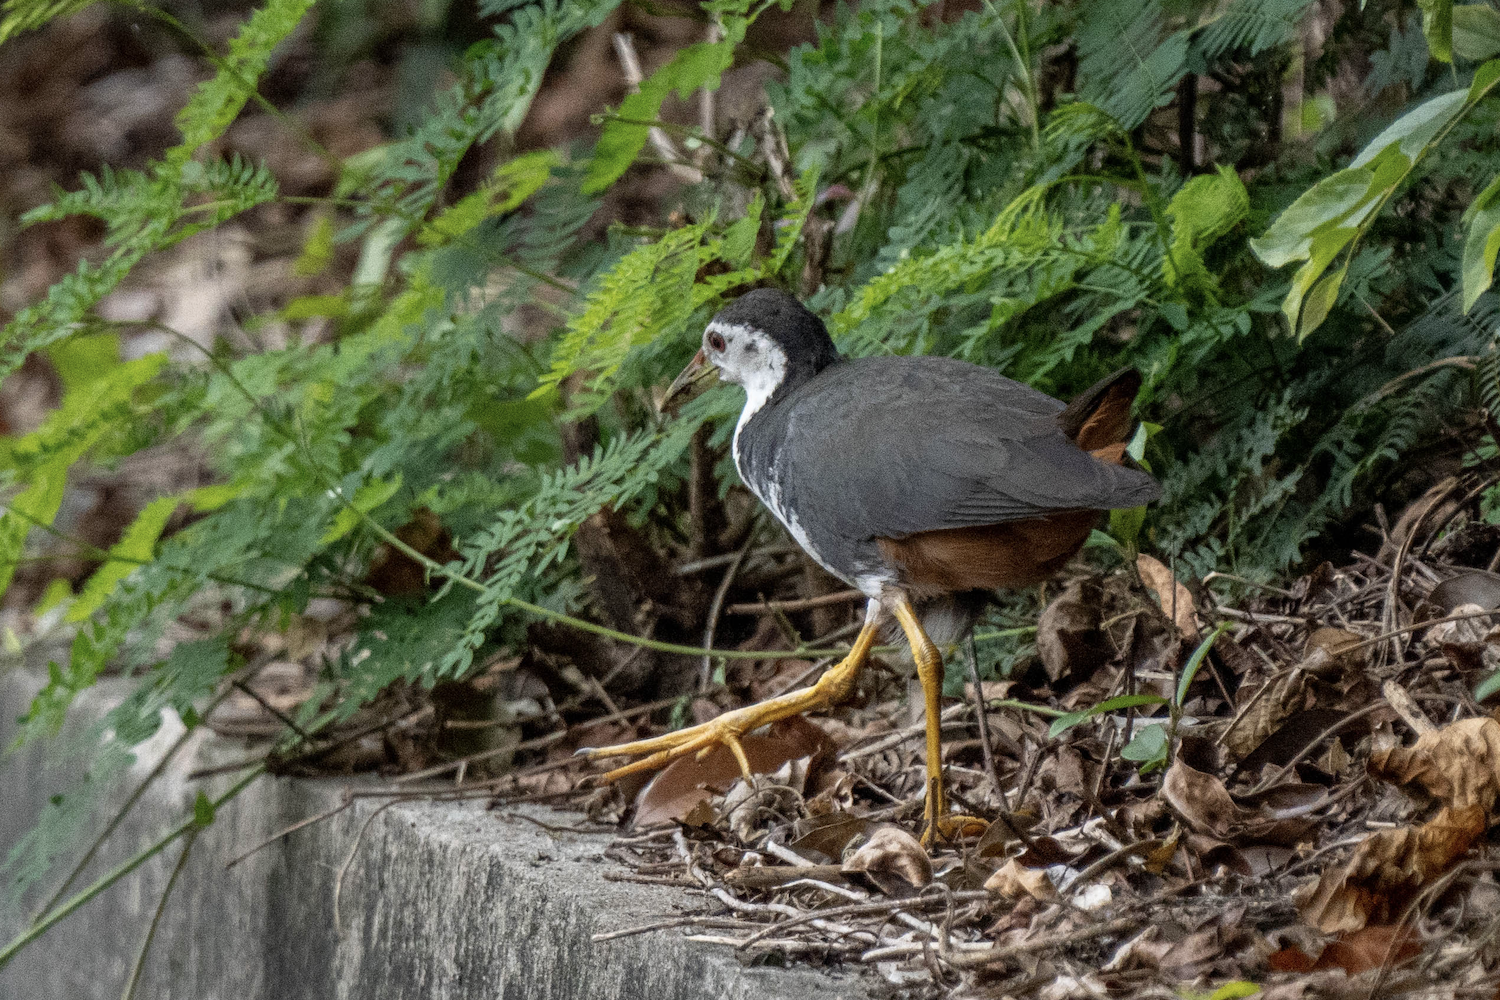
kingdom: Animalia
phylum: Chordata
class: Aves
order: Gruiformes
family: Rallidae
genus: Amaurornis
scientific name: Amaurornis phoenicurus
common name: White-breasted waterhen
